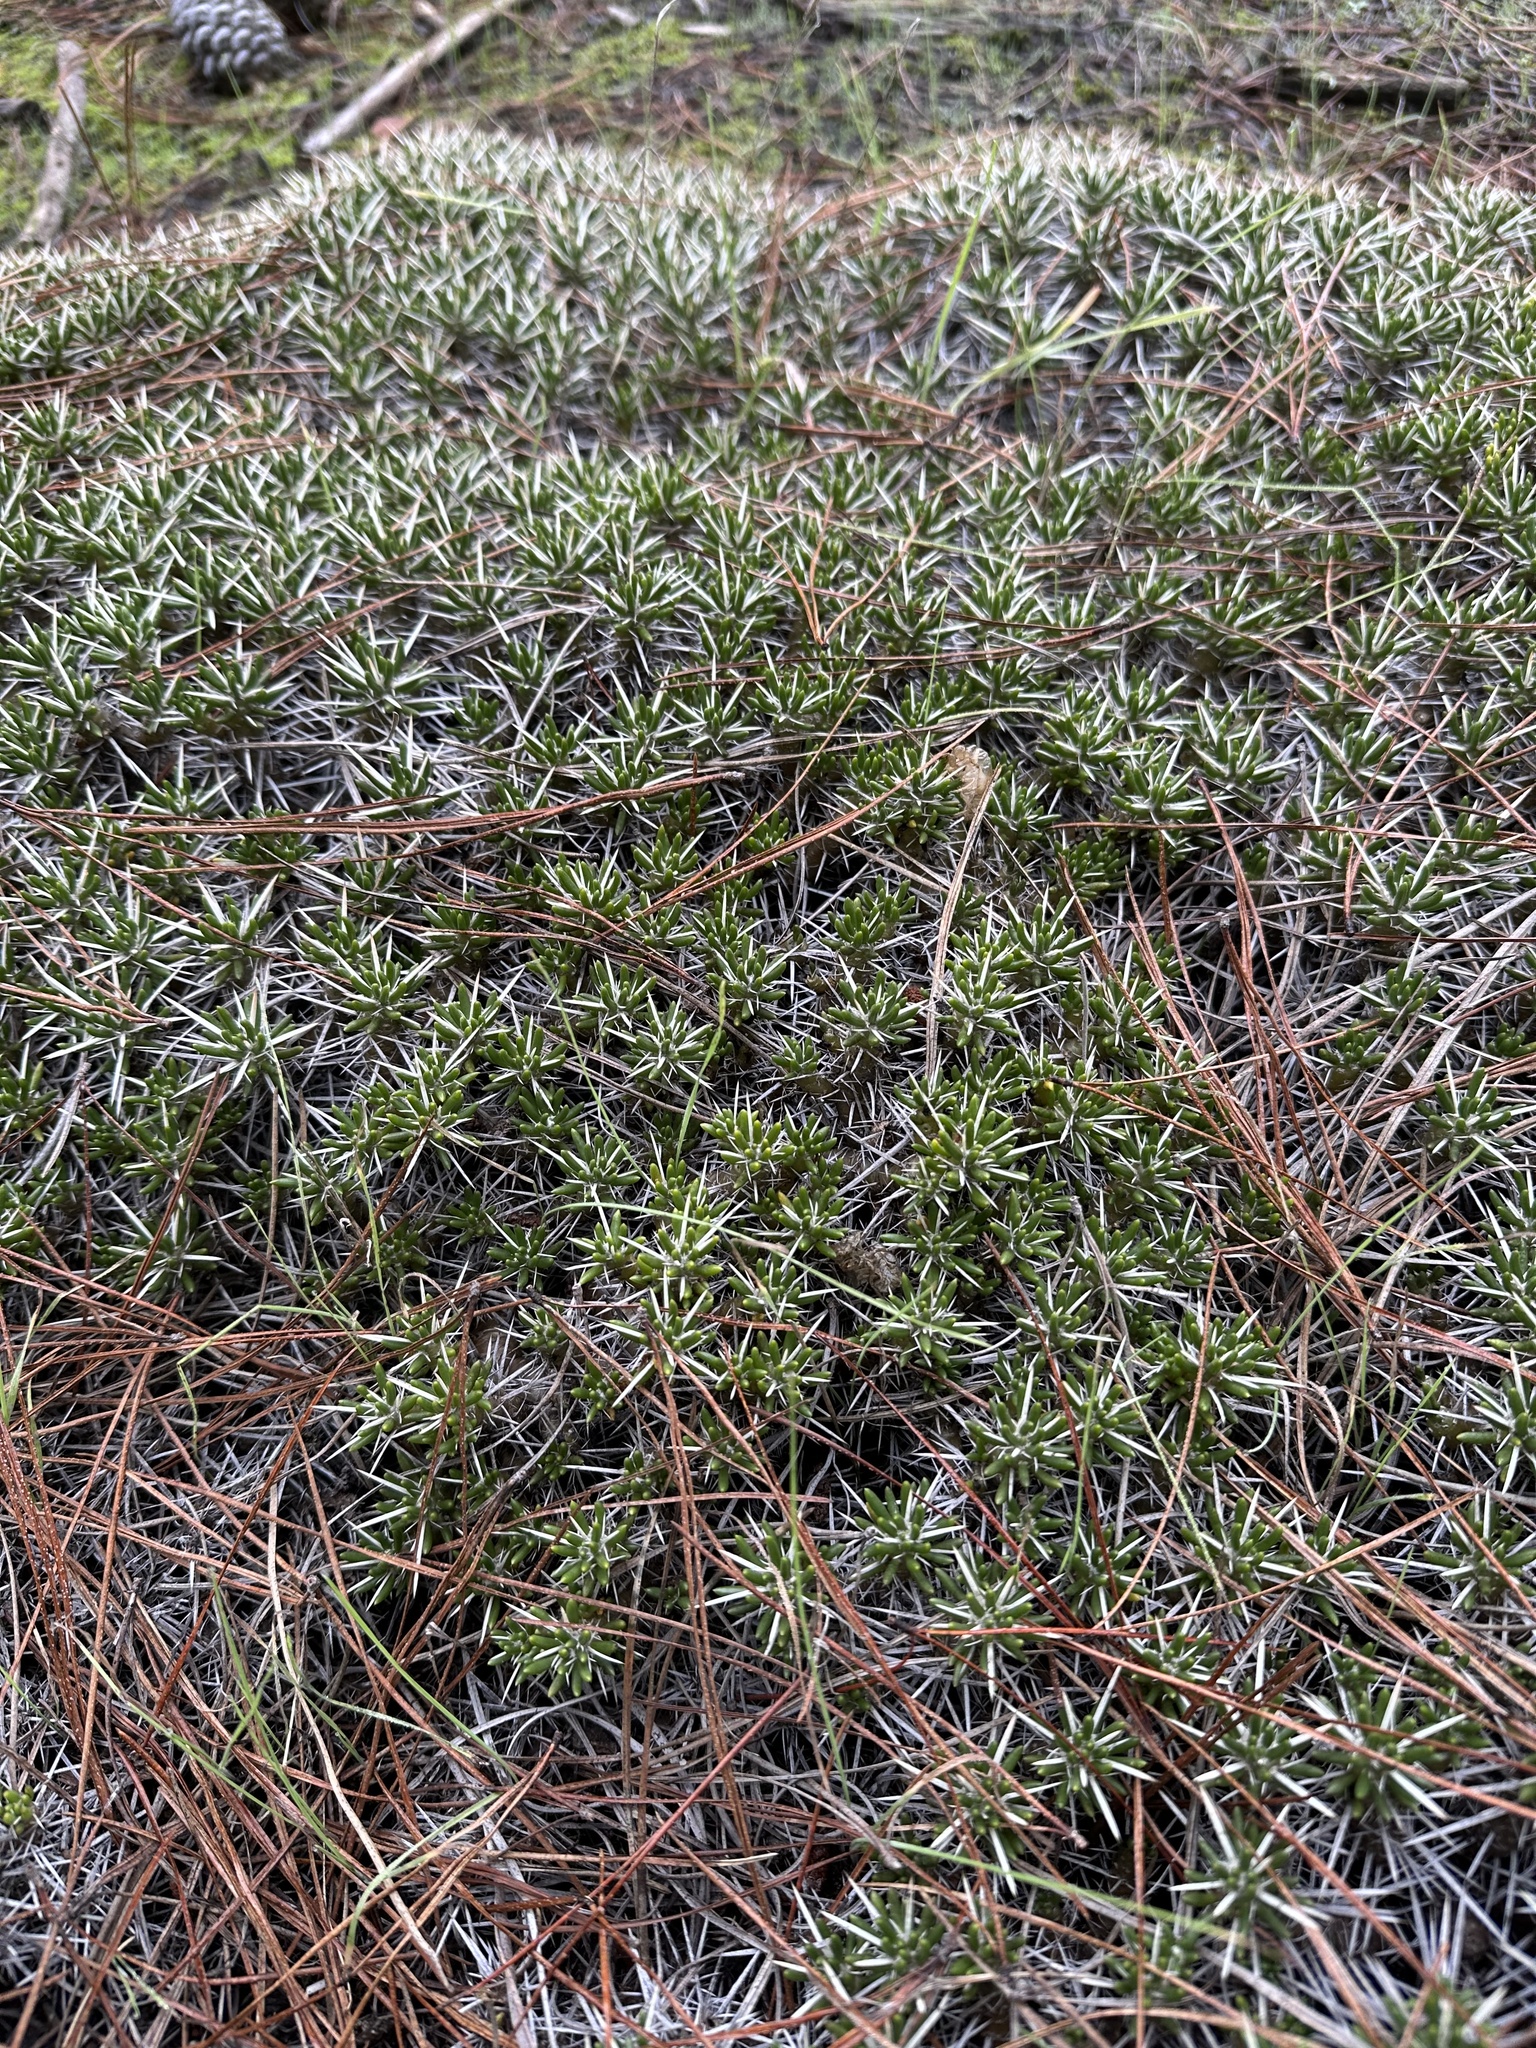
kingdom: Plantae
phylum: Tracheophyta
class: Magnoliopsida
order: Caryophyllales
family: Cactaceae
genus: Maihuenia
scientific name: Maihuenia poeppigii
